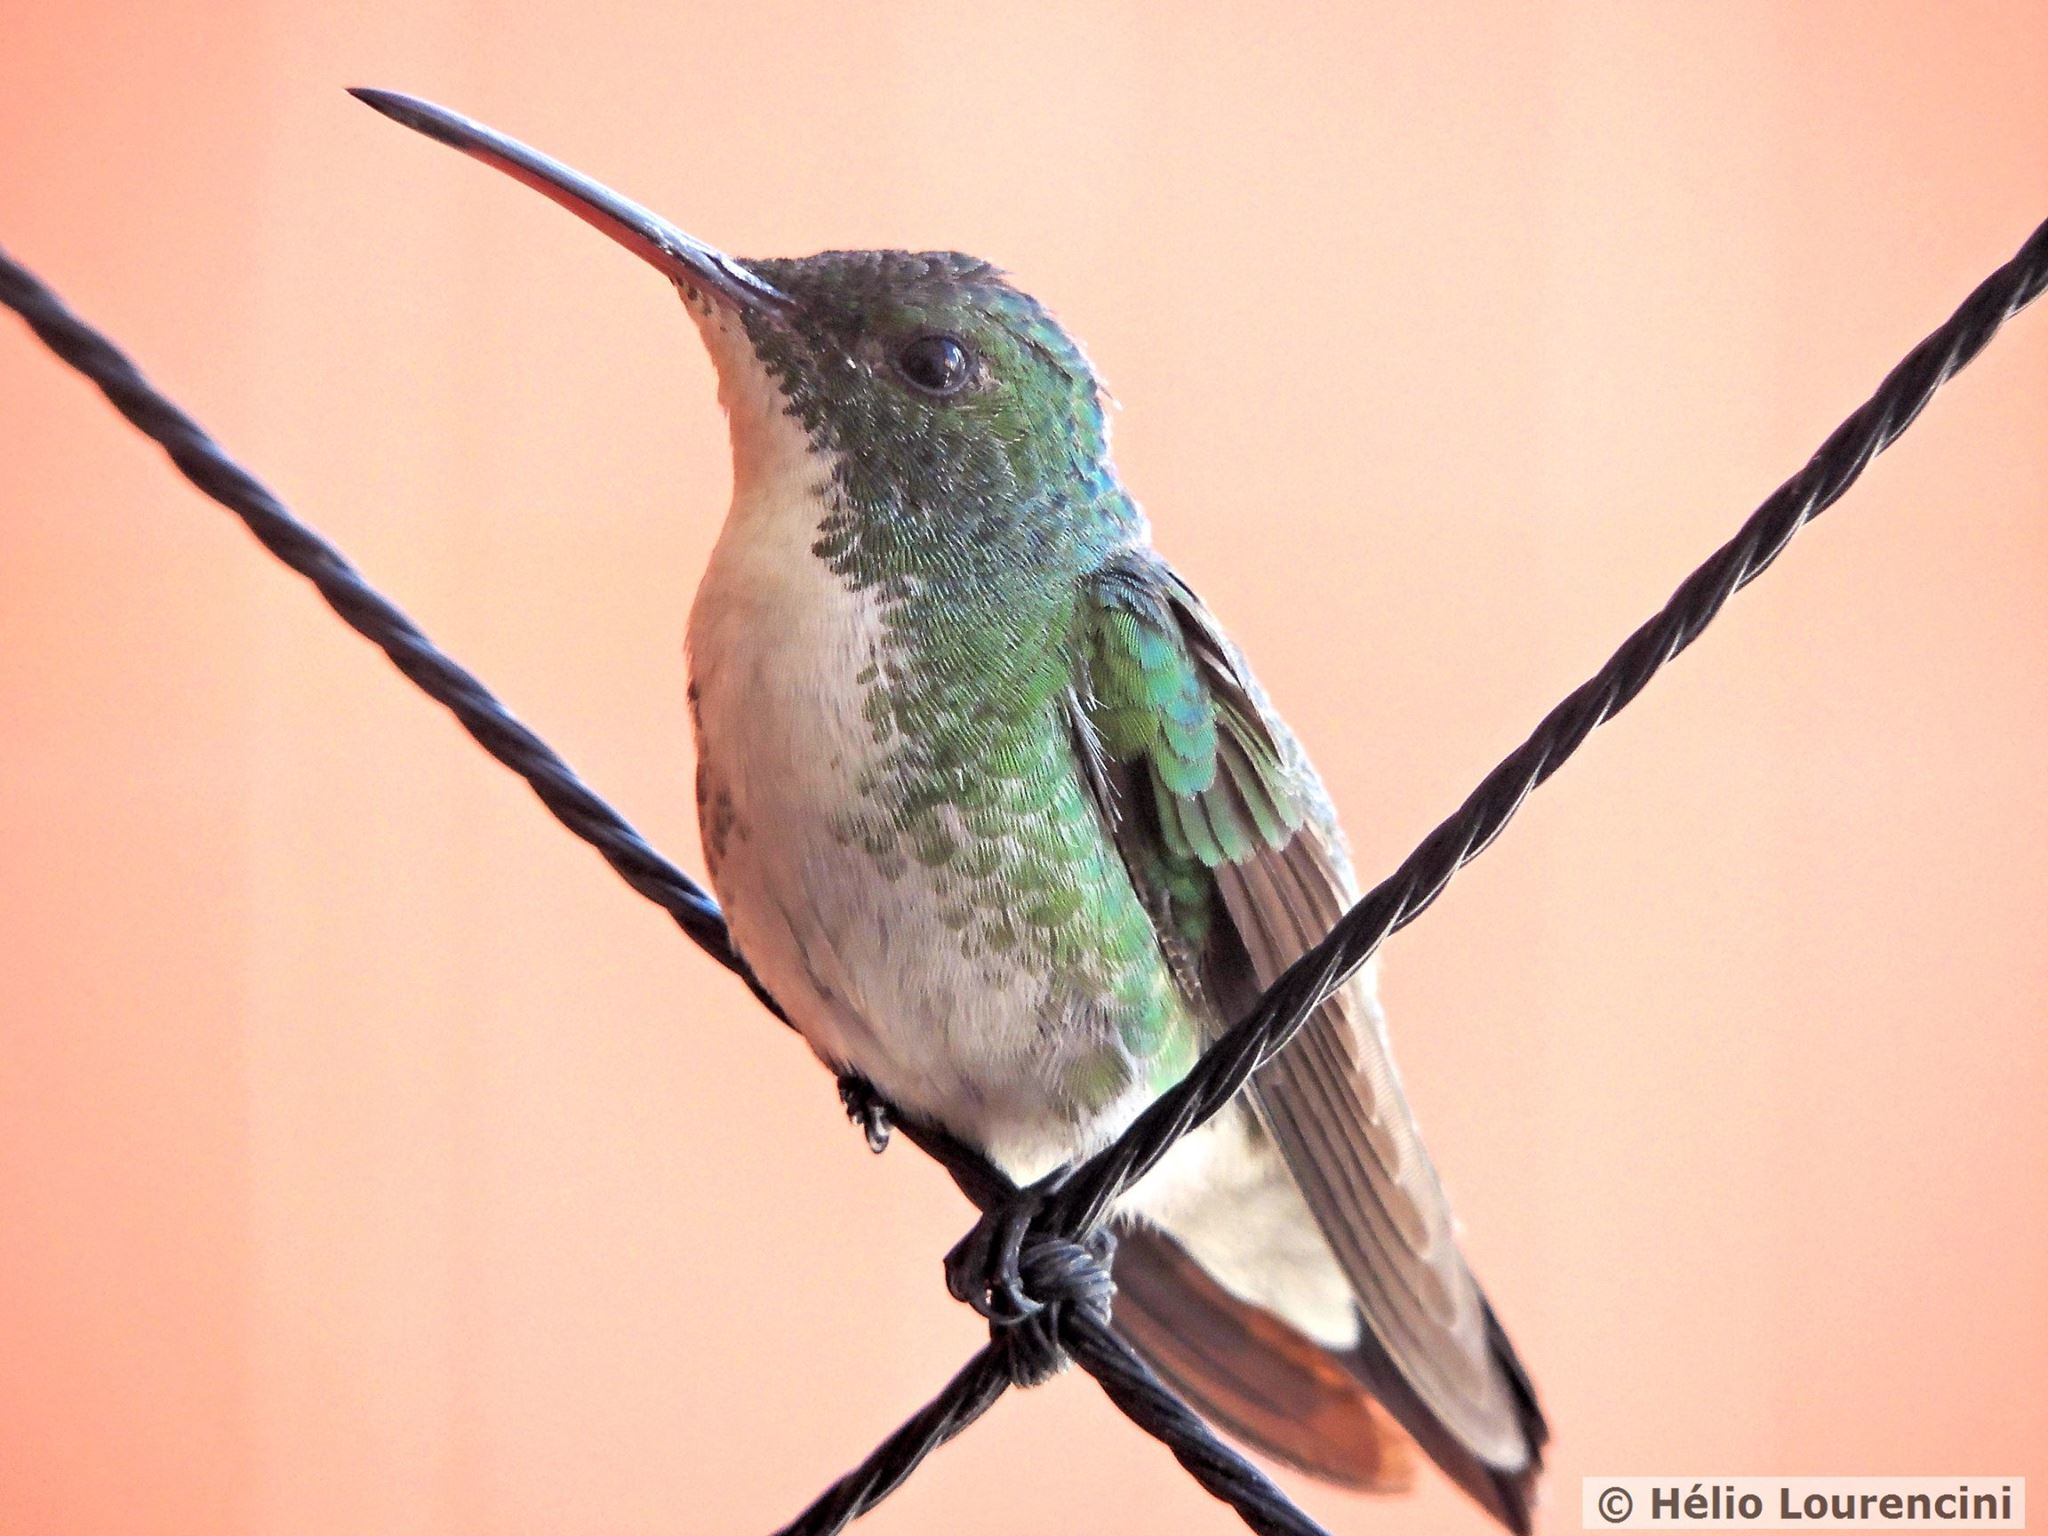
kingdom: Animalia
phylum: Chordata
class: Aves
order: Apodiformes
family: Trochilidae
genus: Chrysuronia
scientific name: Chrysuronia leucogaster
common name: Plain-bellied emerald
